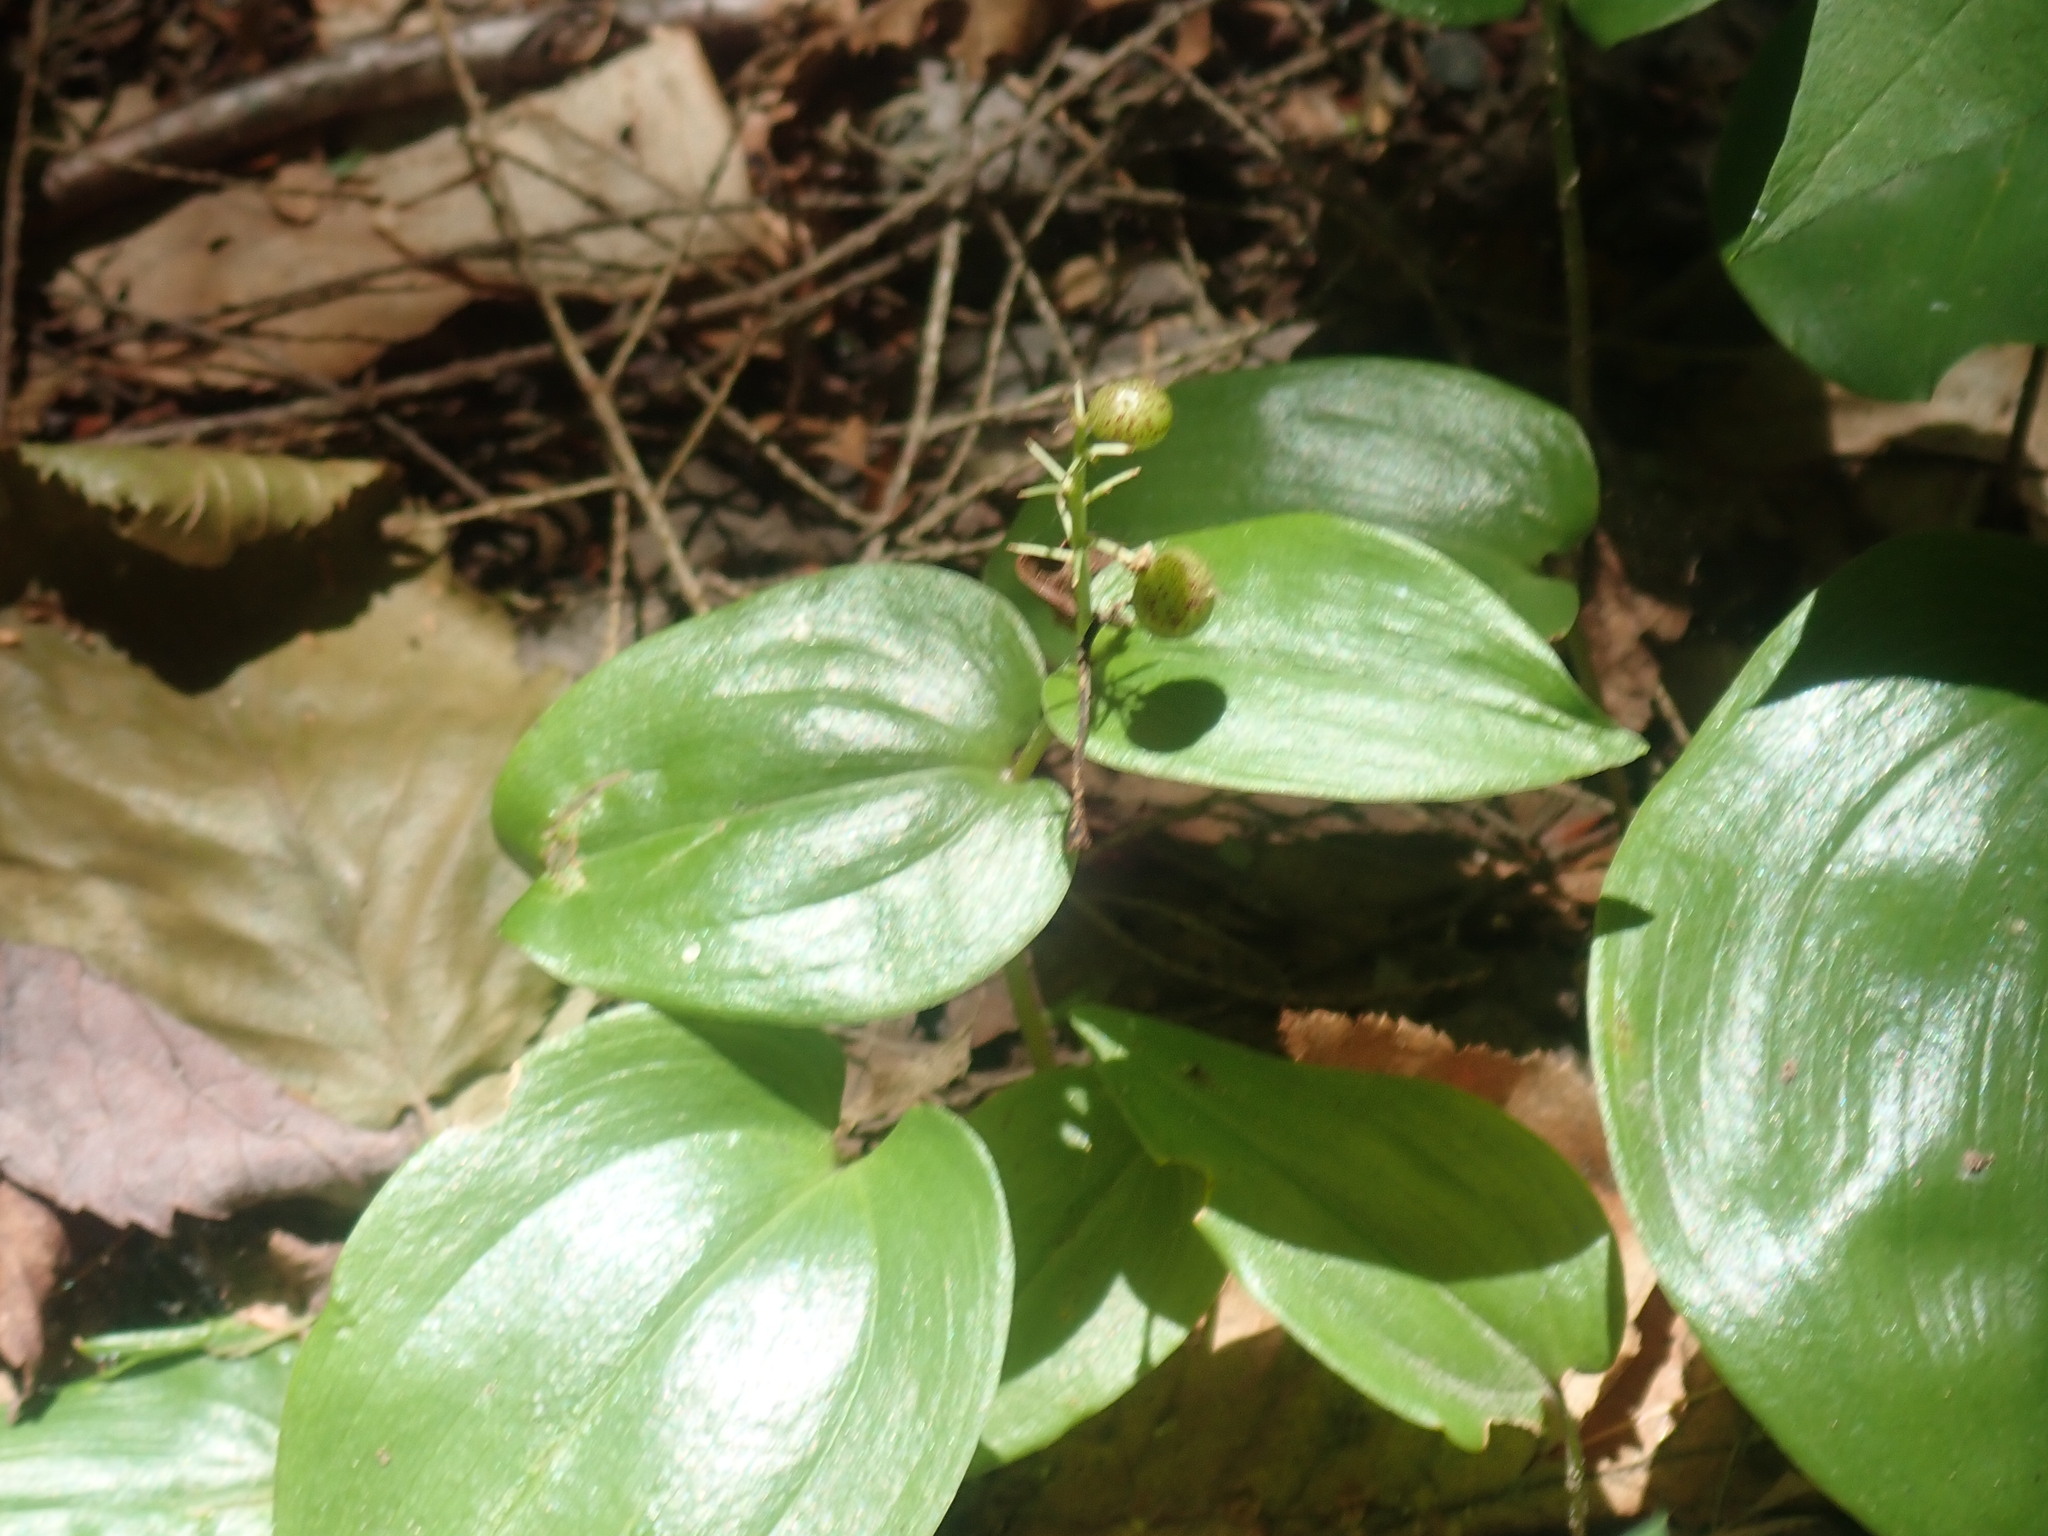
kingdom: Plantae
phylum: Tracheophyta
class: Liliopsida
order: Asparagales
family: Asparagaceae
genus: Maianthemum
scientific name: Maianthemum canadense
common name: False lily-of-the-valley
